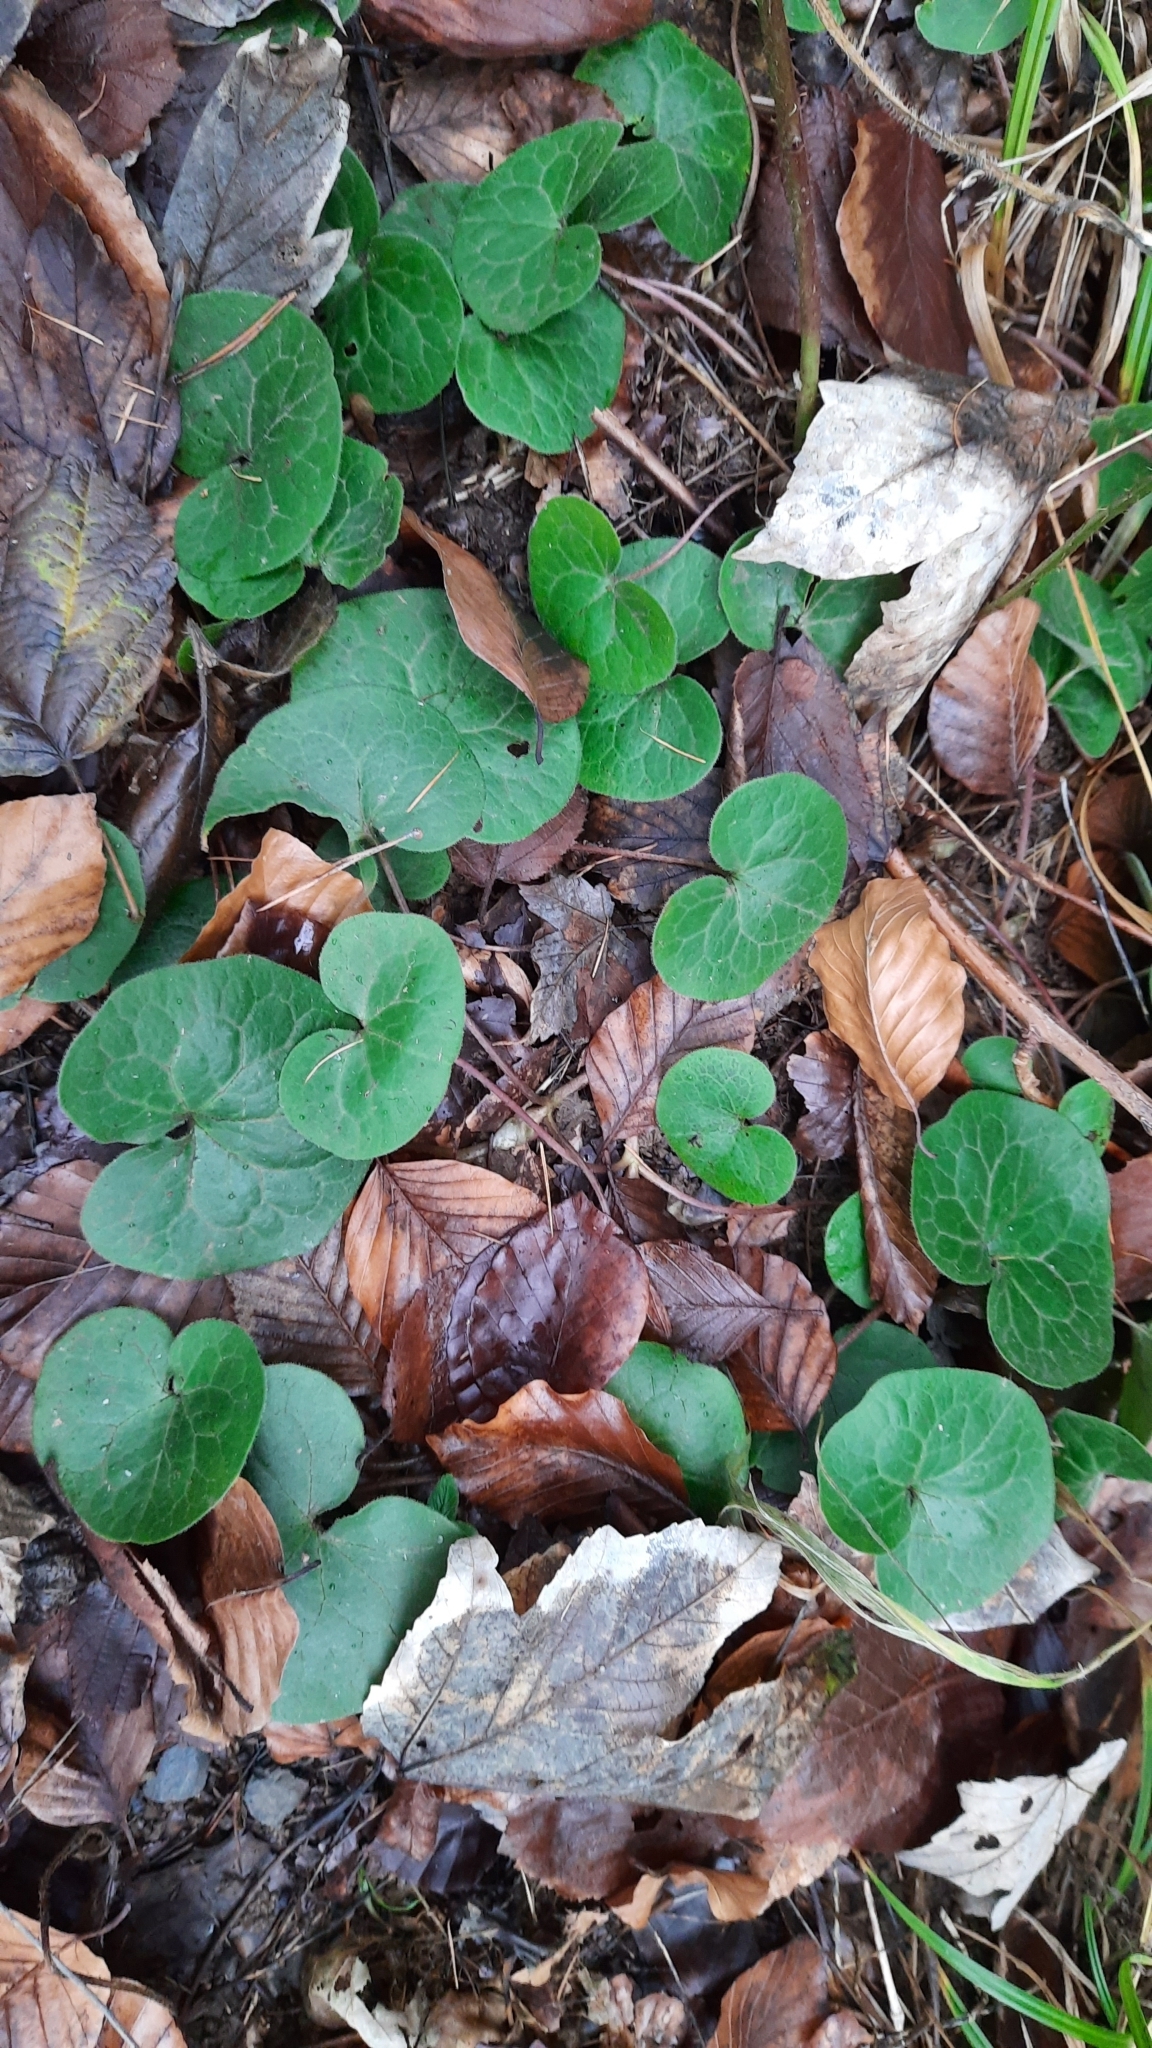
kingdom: Plantae
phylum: Tracheophyta
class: Magnoliopsida
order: Piperales
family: Aristolochiaceae
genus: Asarum
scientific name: Asarum europaeum
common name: Asarabacca
